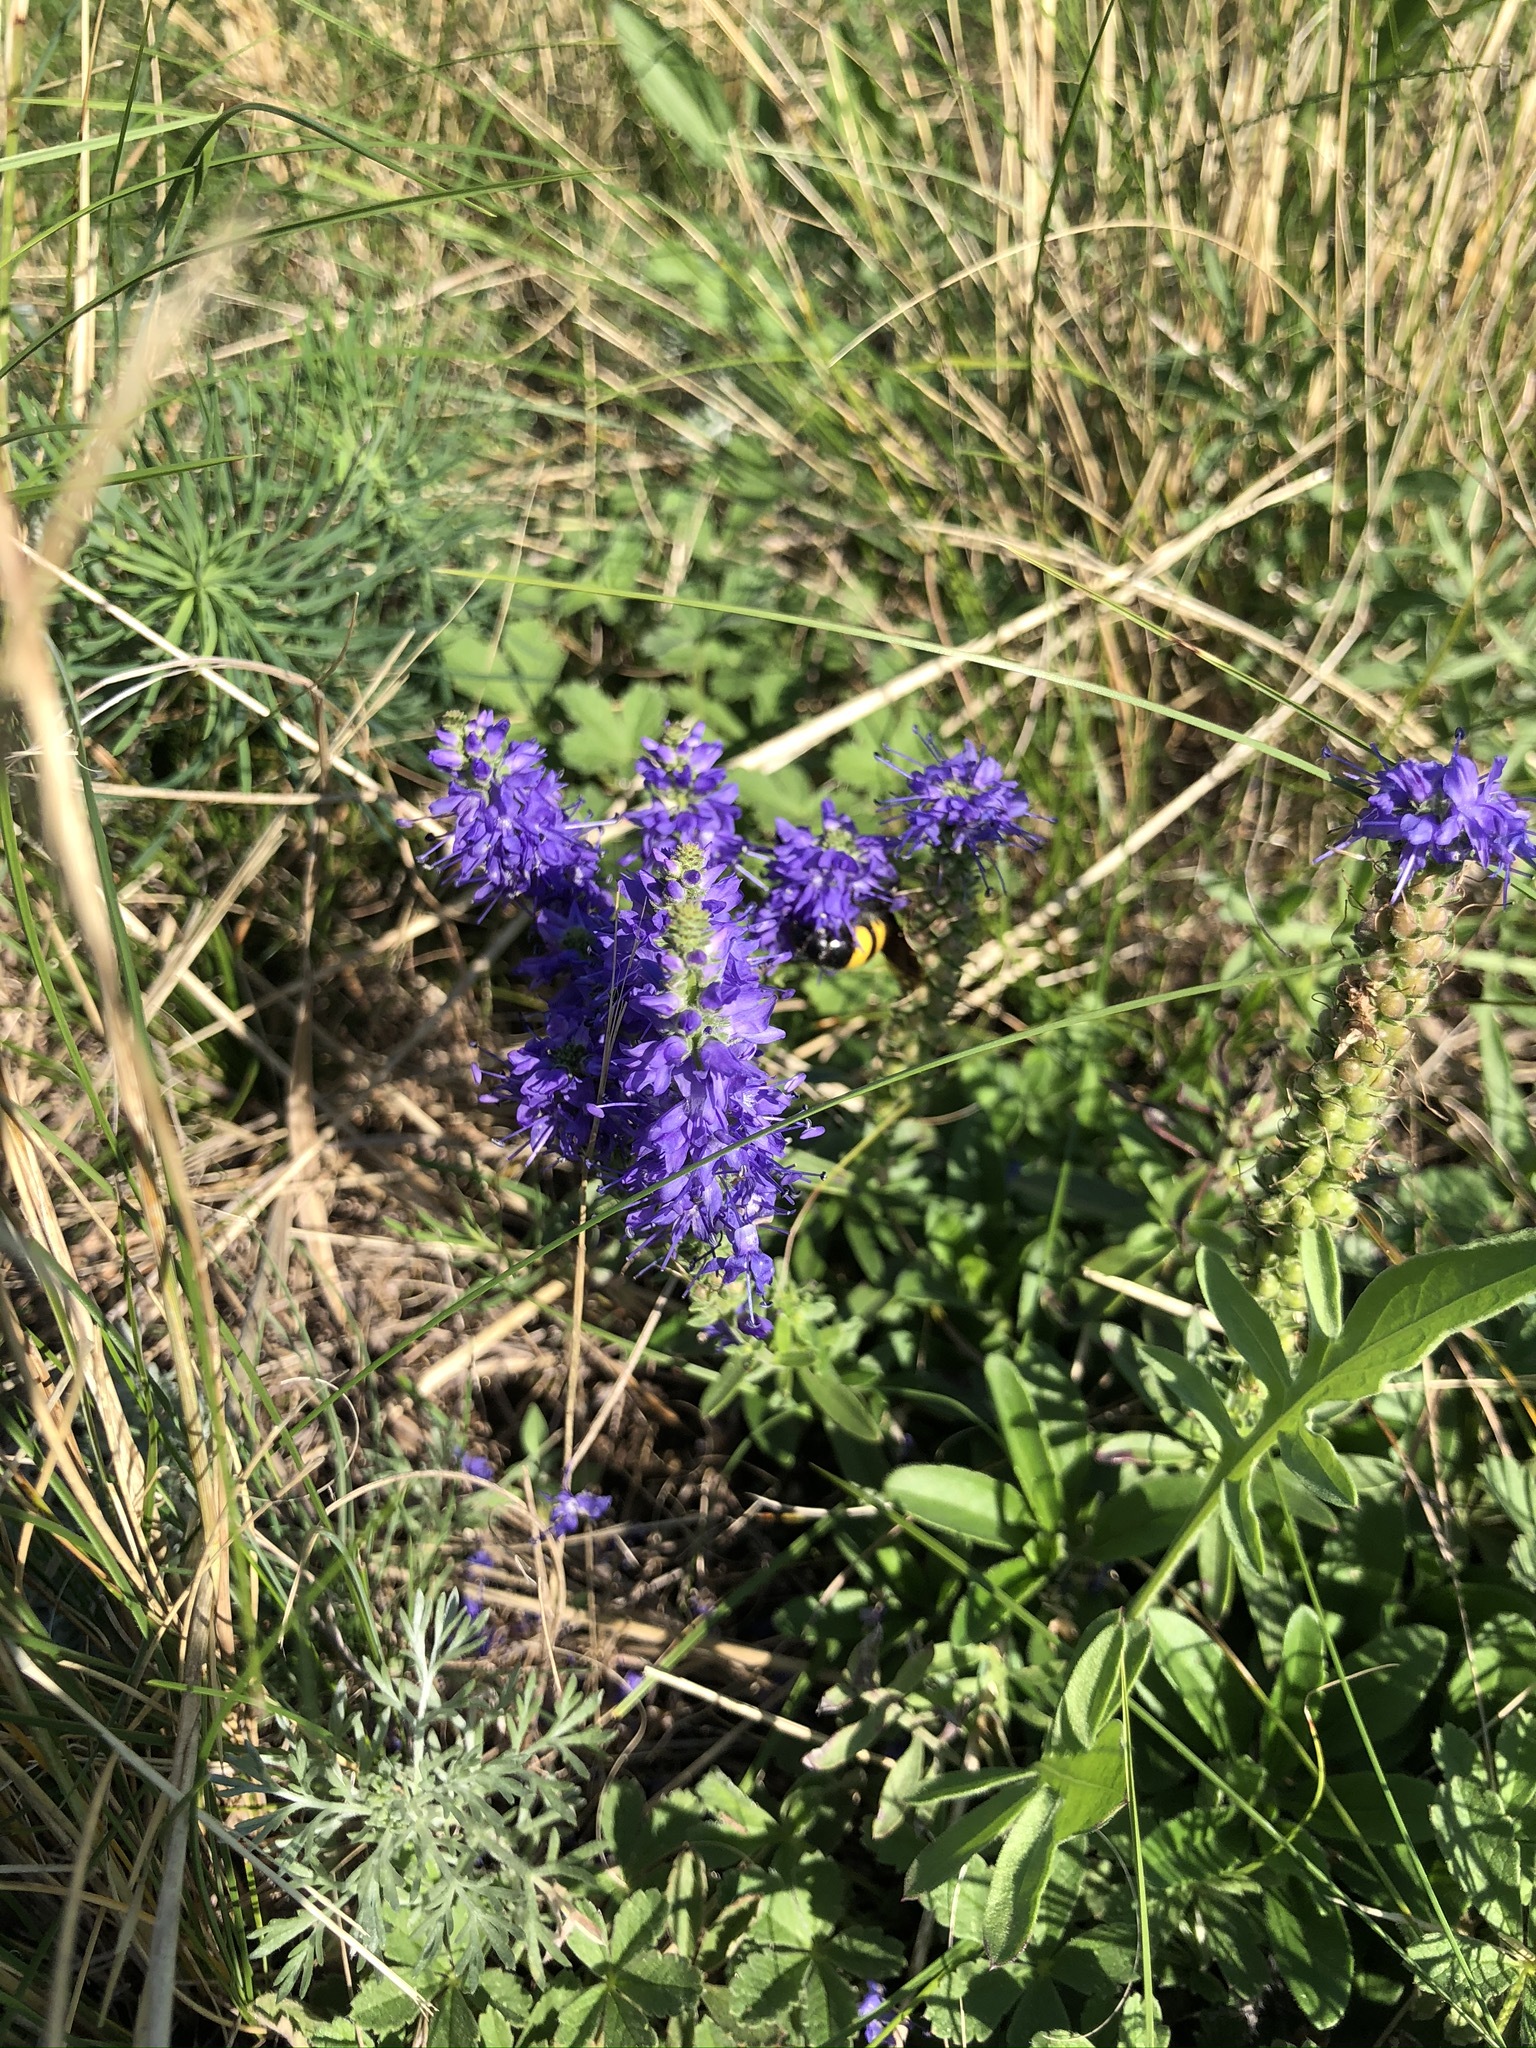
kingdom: Plantae
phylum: Tracheophyta
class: Magnoliopsida
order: Lamiales
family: Plantaginaceae
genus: Veronica
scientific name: Veronica spicata
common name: Spiked speedwell
